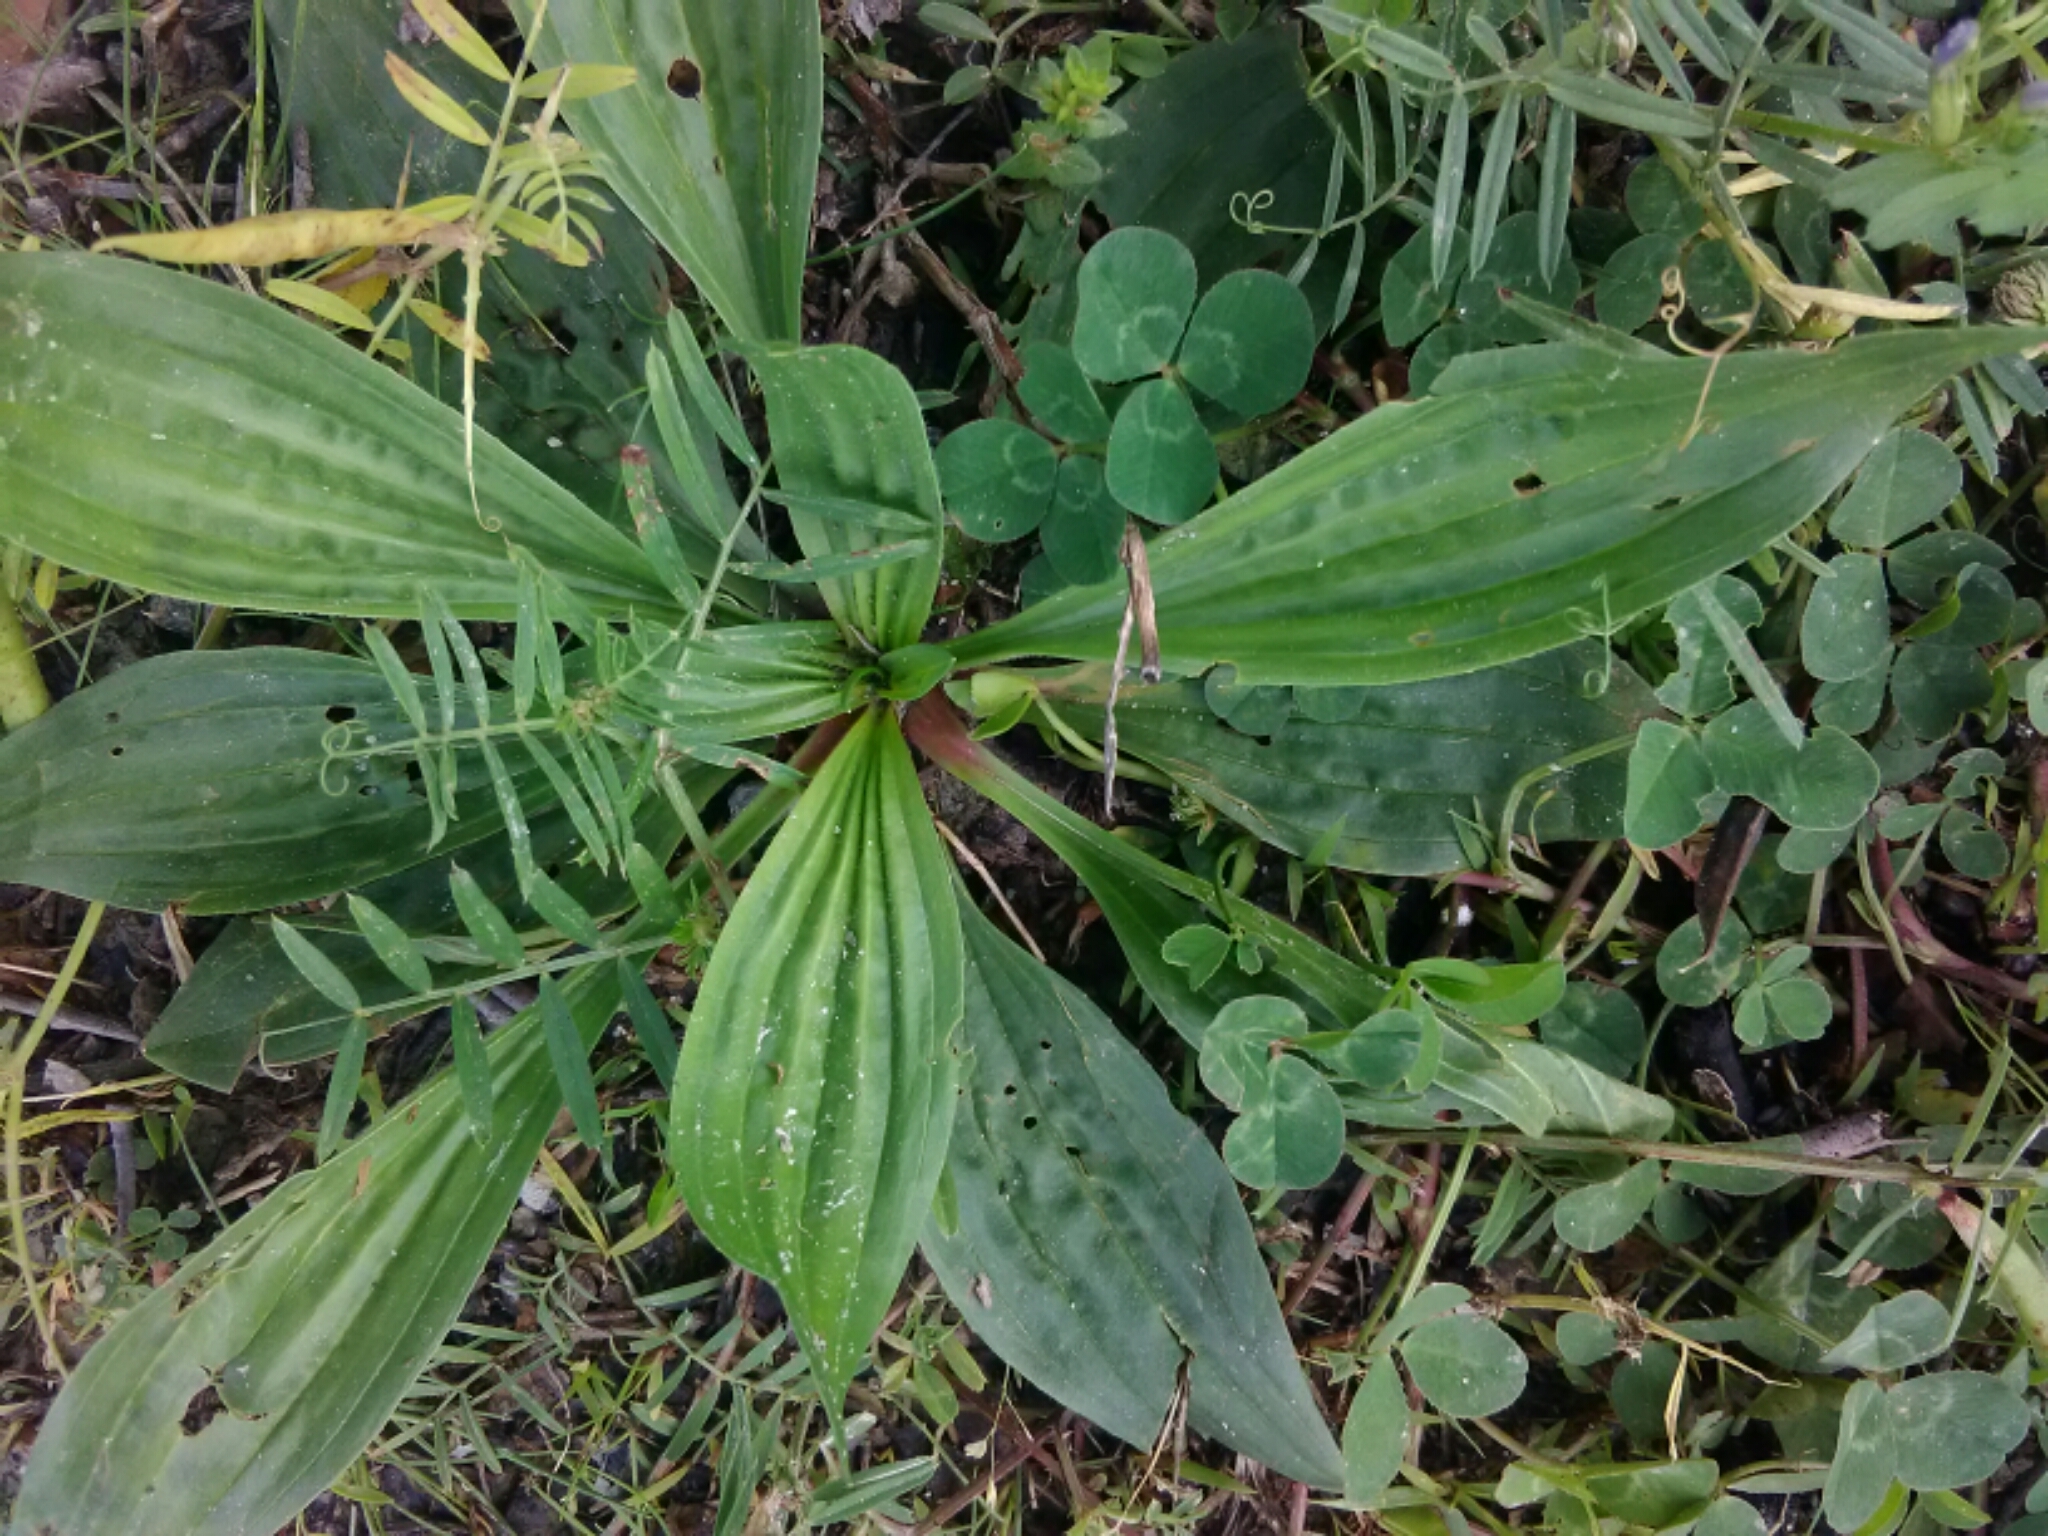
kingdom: Plantae
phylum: Tracheophyta
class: Magnoliopsida
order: Lamiales
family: Plantaginaceae
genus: Plantago
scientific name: Plantago major
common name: Common plantain
